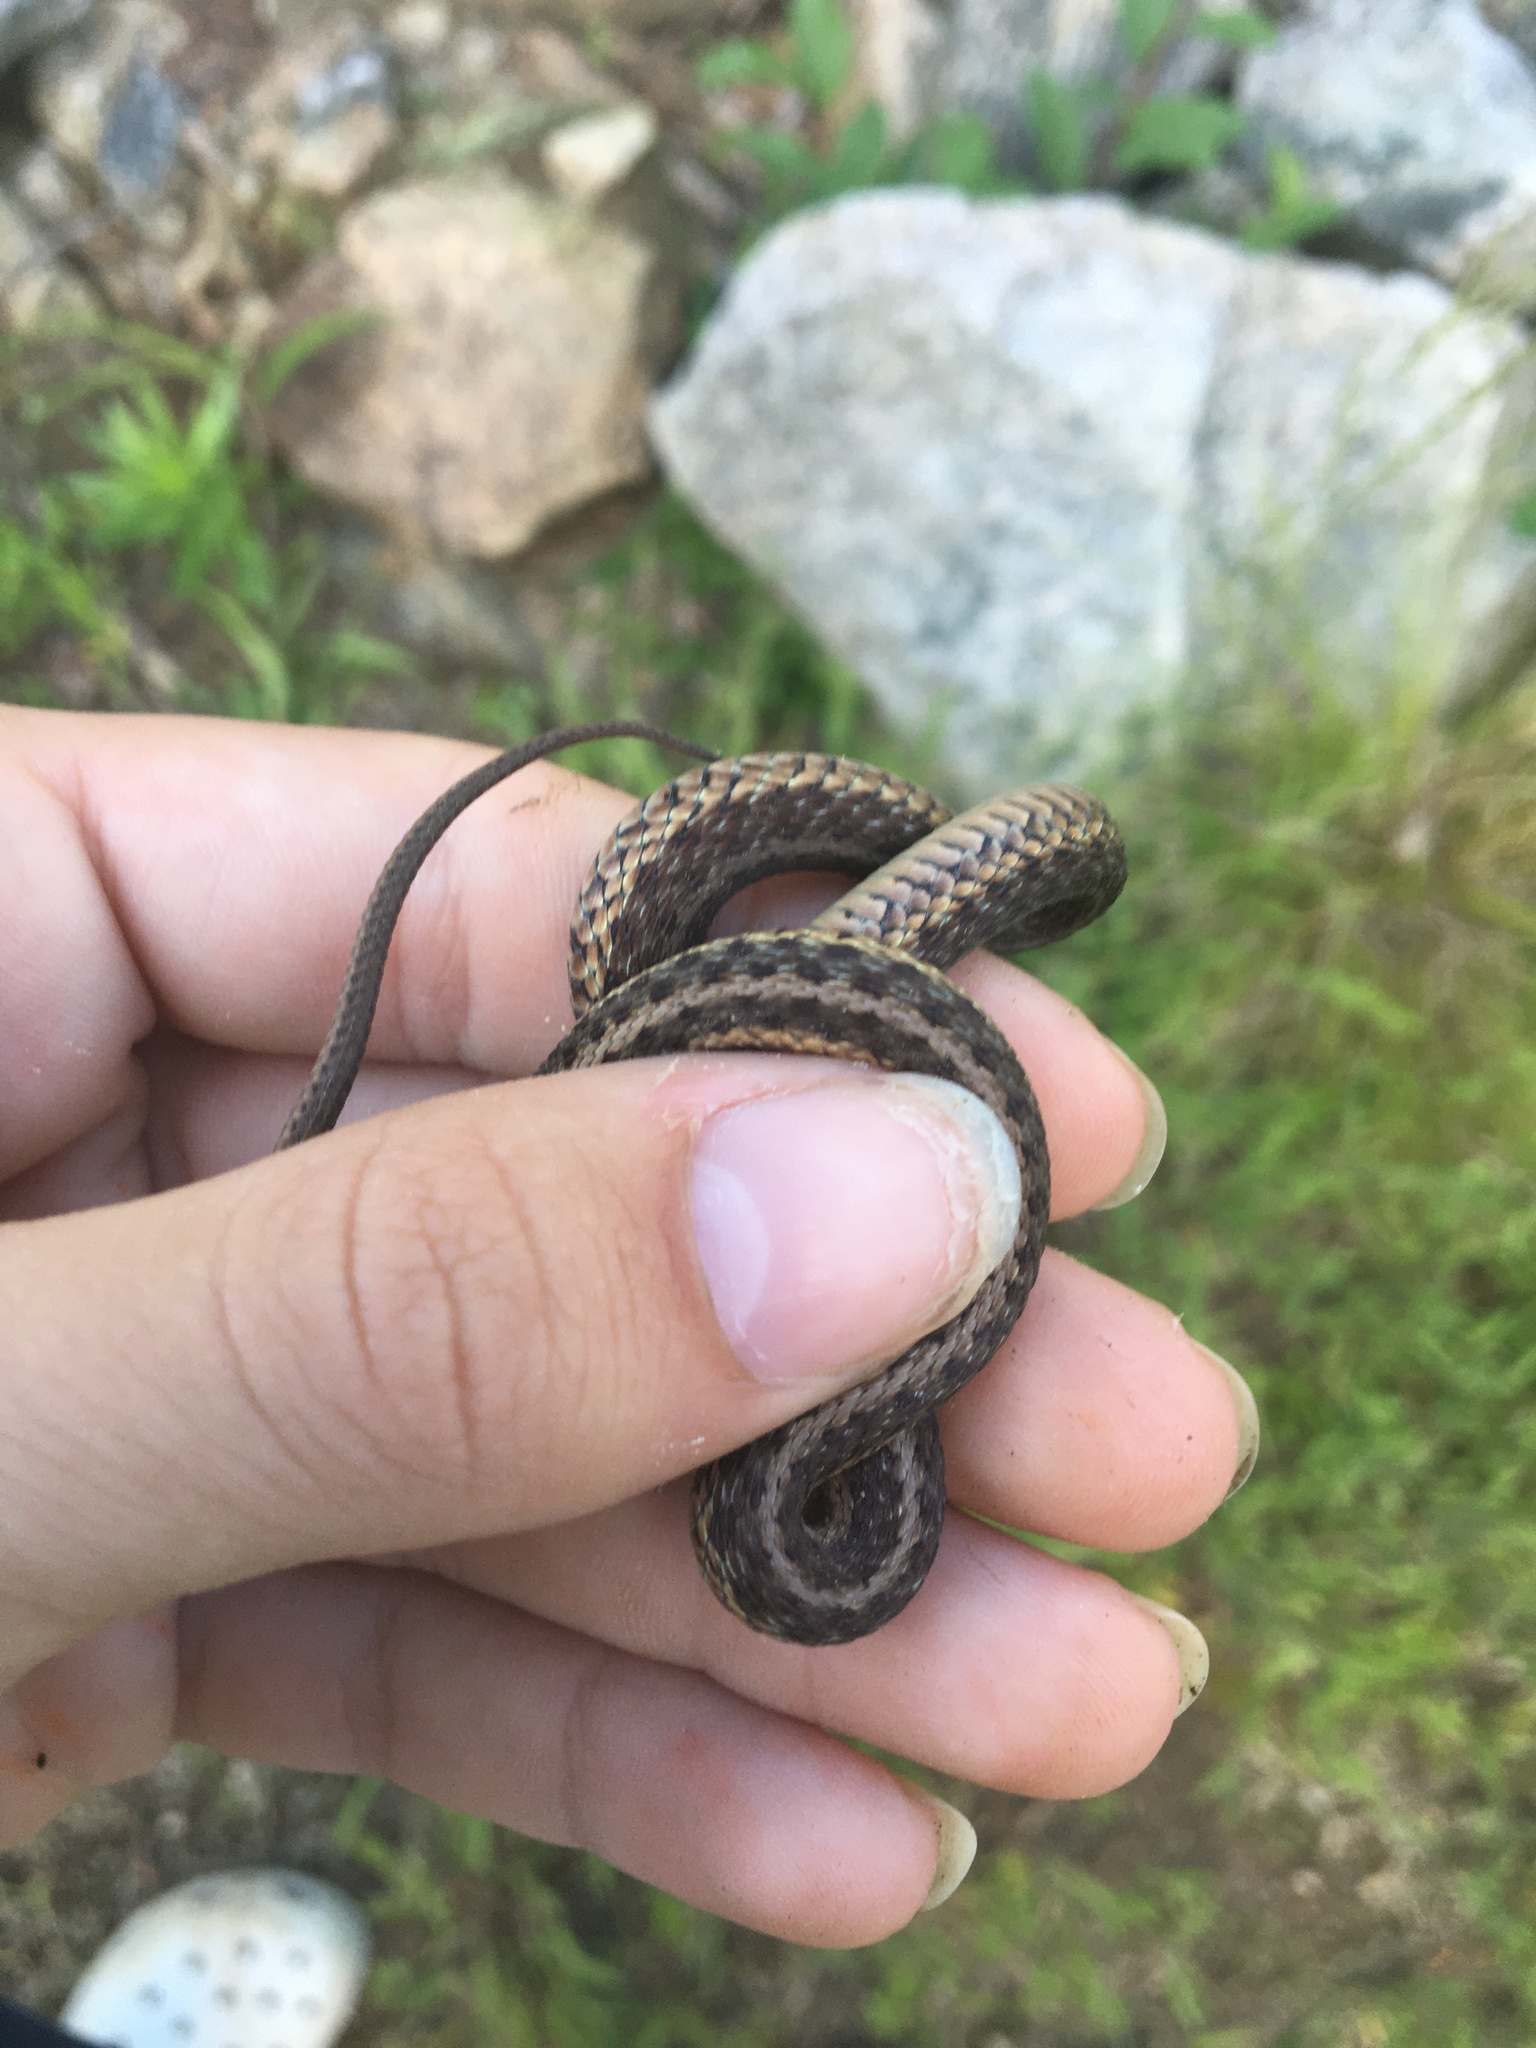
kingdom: Animalia
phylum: Chordata
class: Squamata
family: Colubridae
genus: Thamnophis
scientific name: Thamnophis sirtalis
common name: Common garter snake
